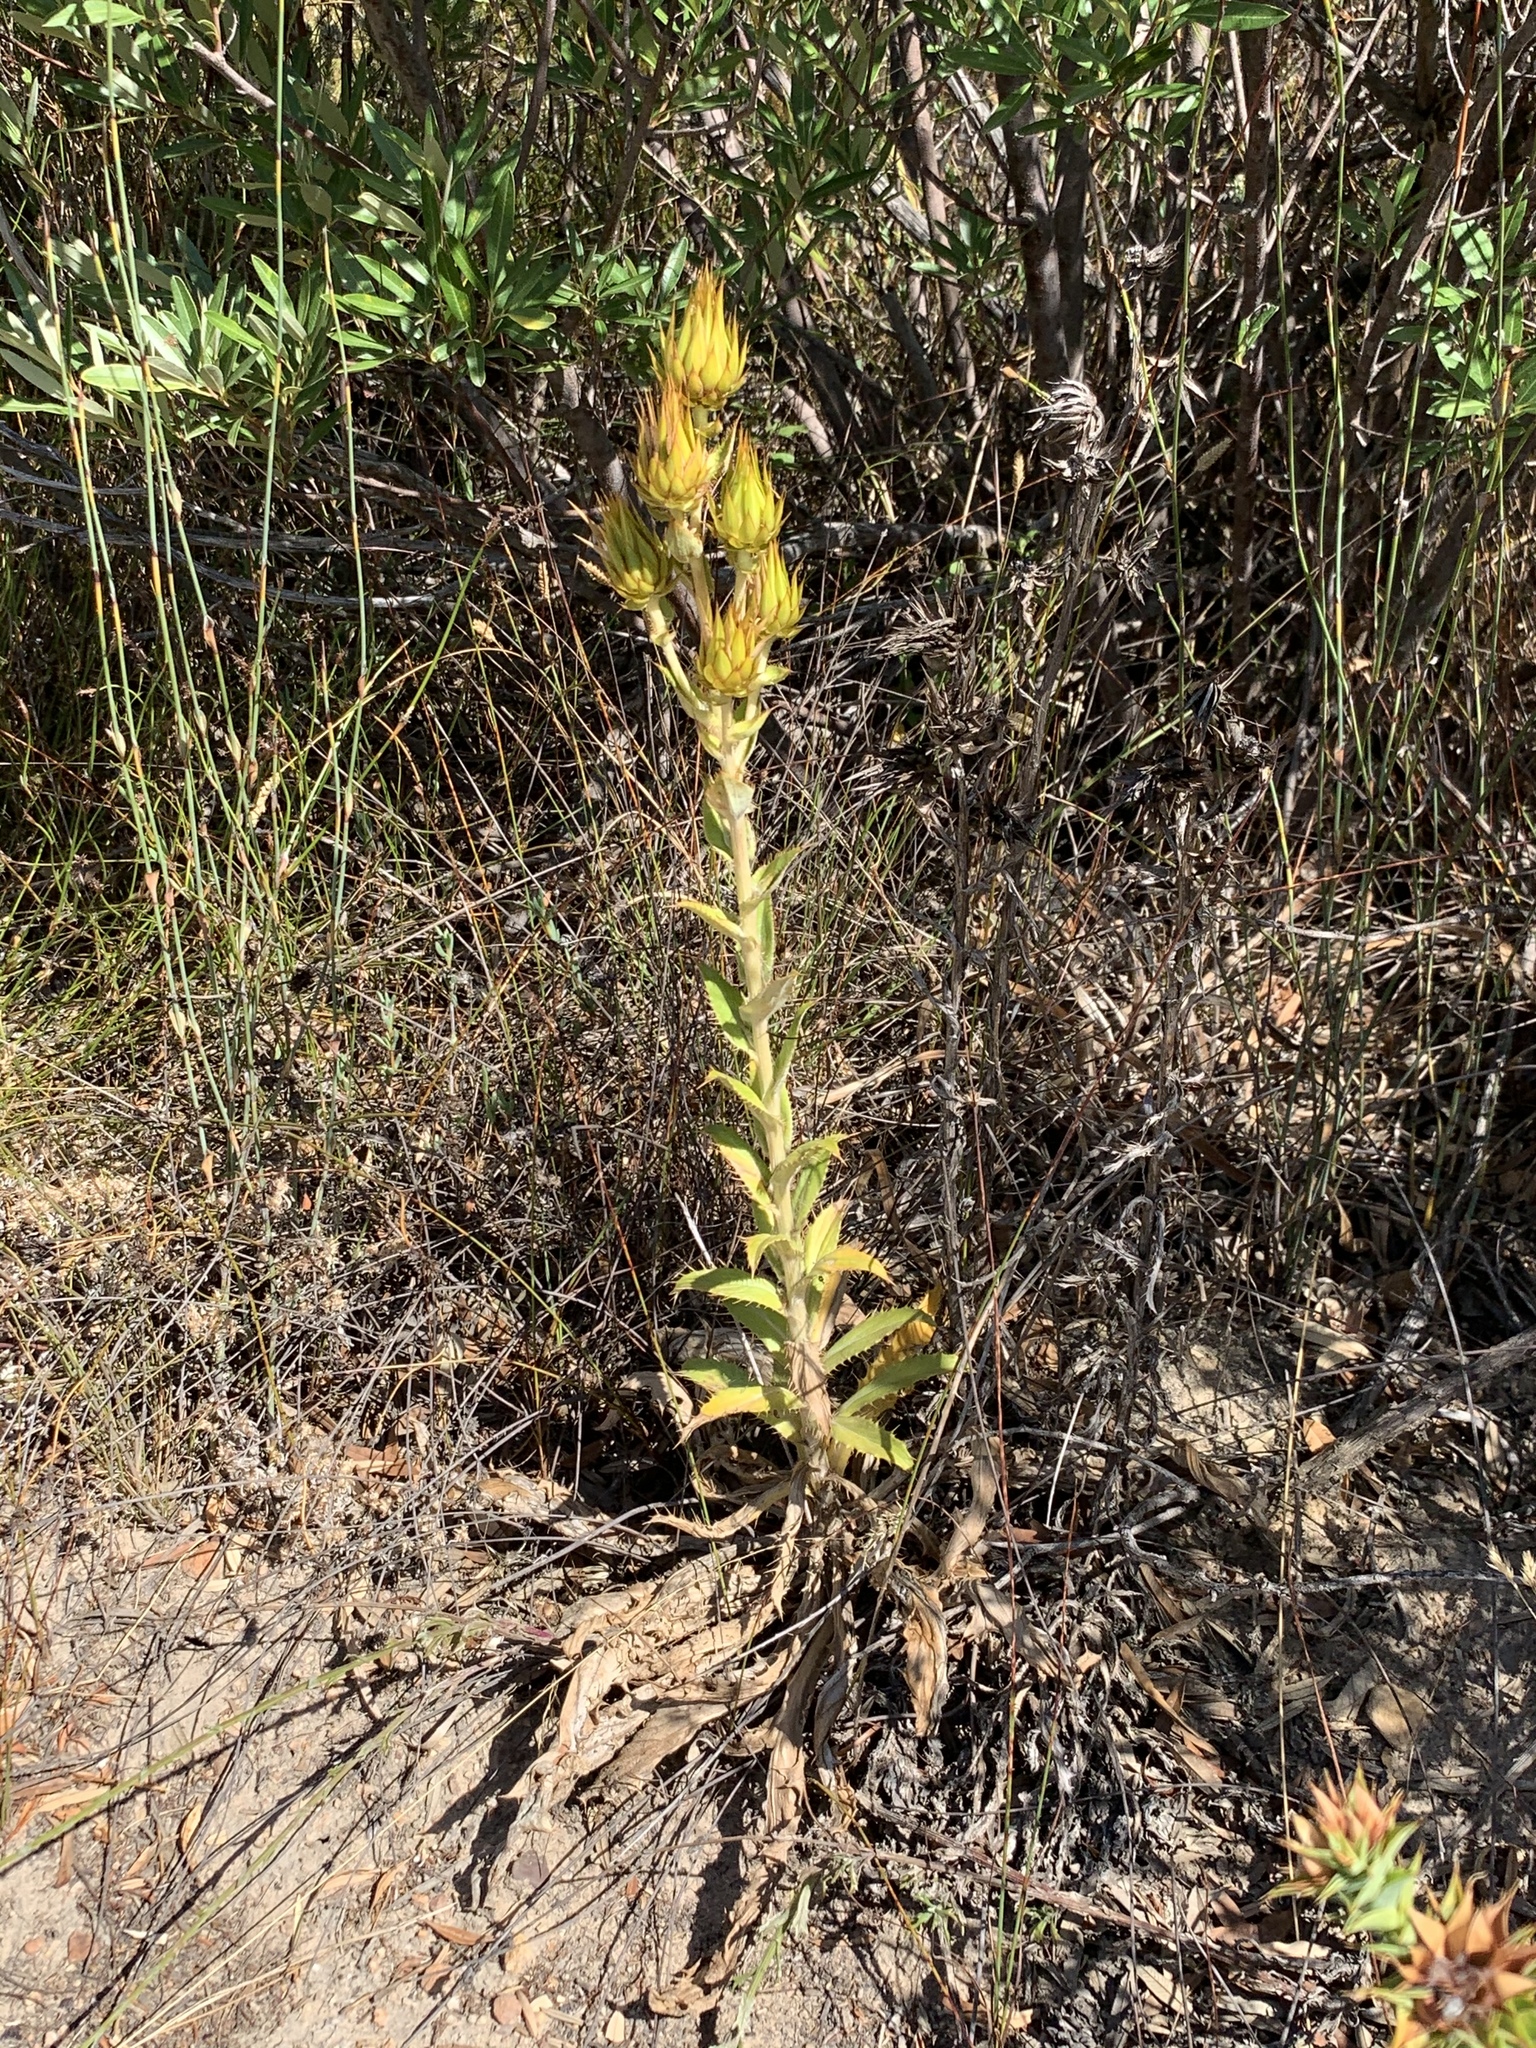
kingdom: Plantae
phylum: Tracheophyta
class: Magnoliopsida
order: Asterales
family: Asteraceae
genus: Berkheya
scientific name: Berkheya herbacea
